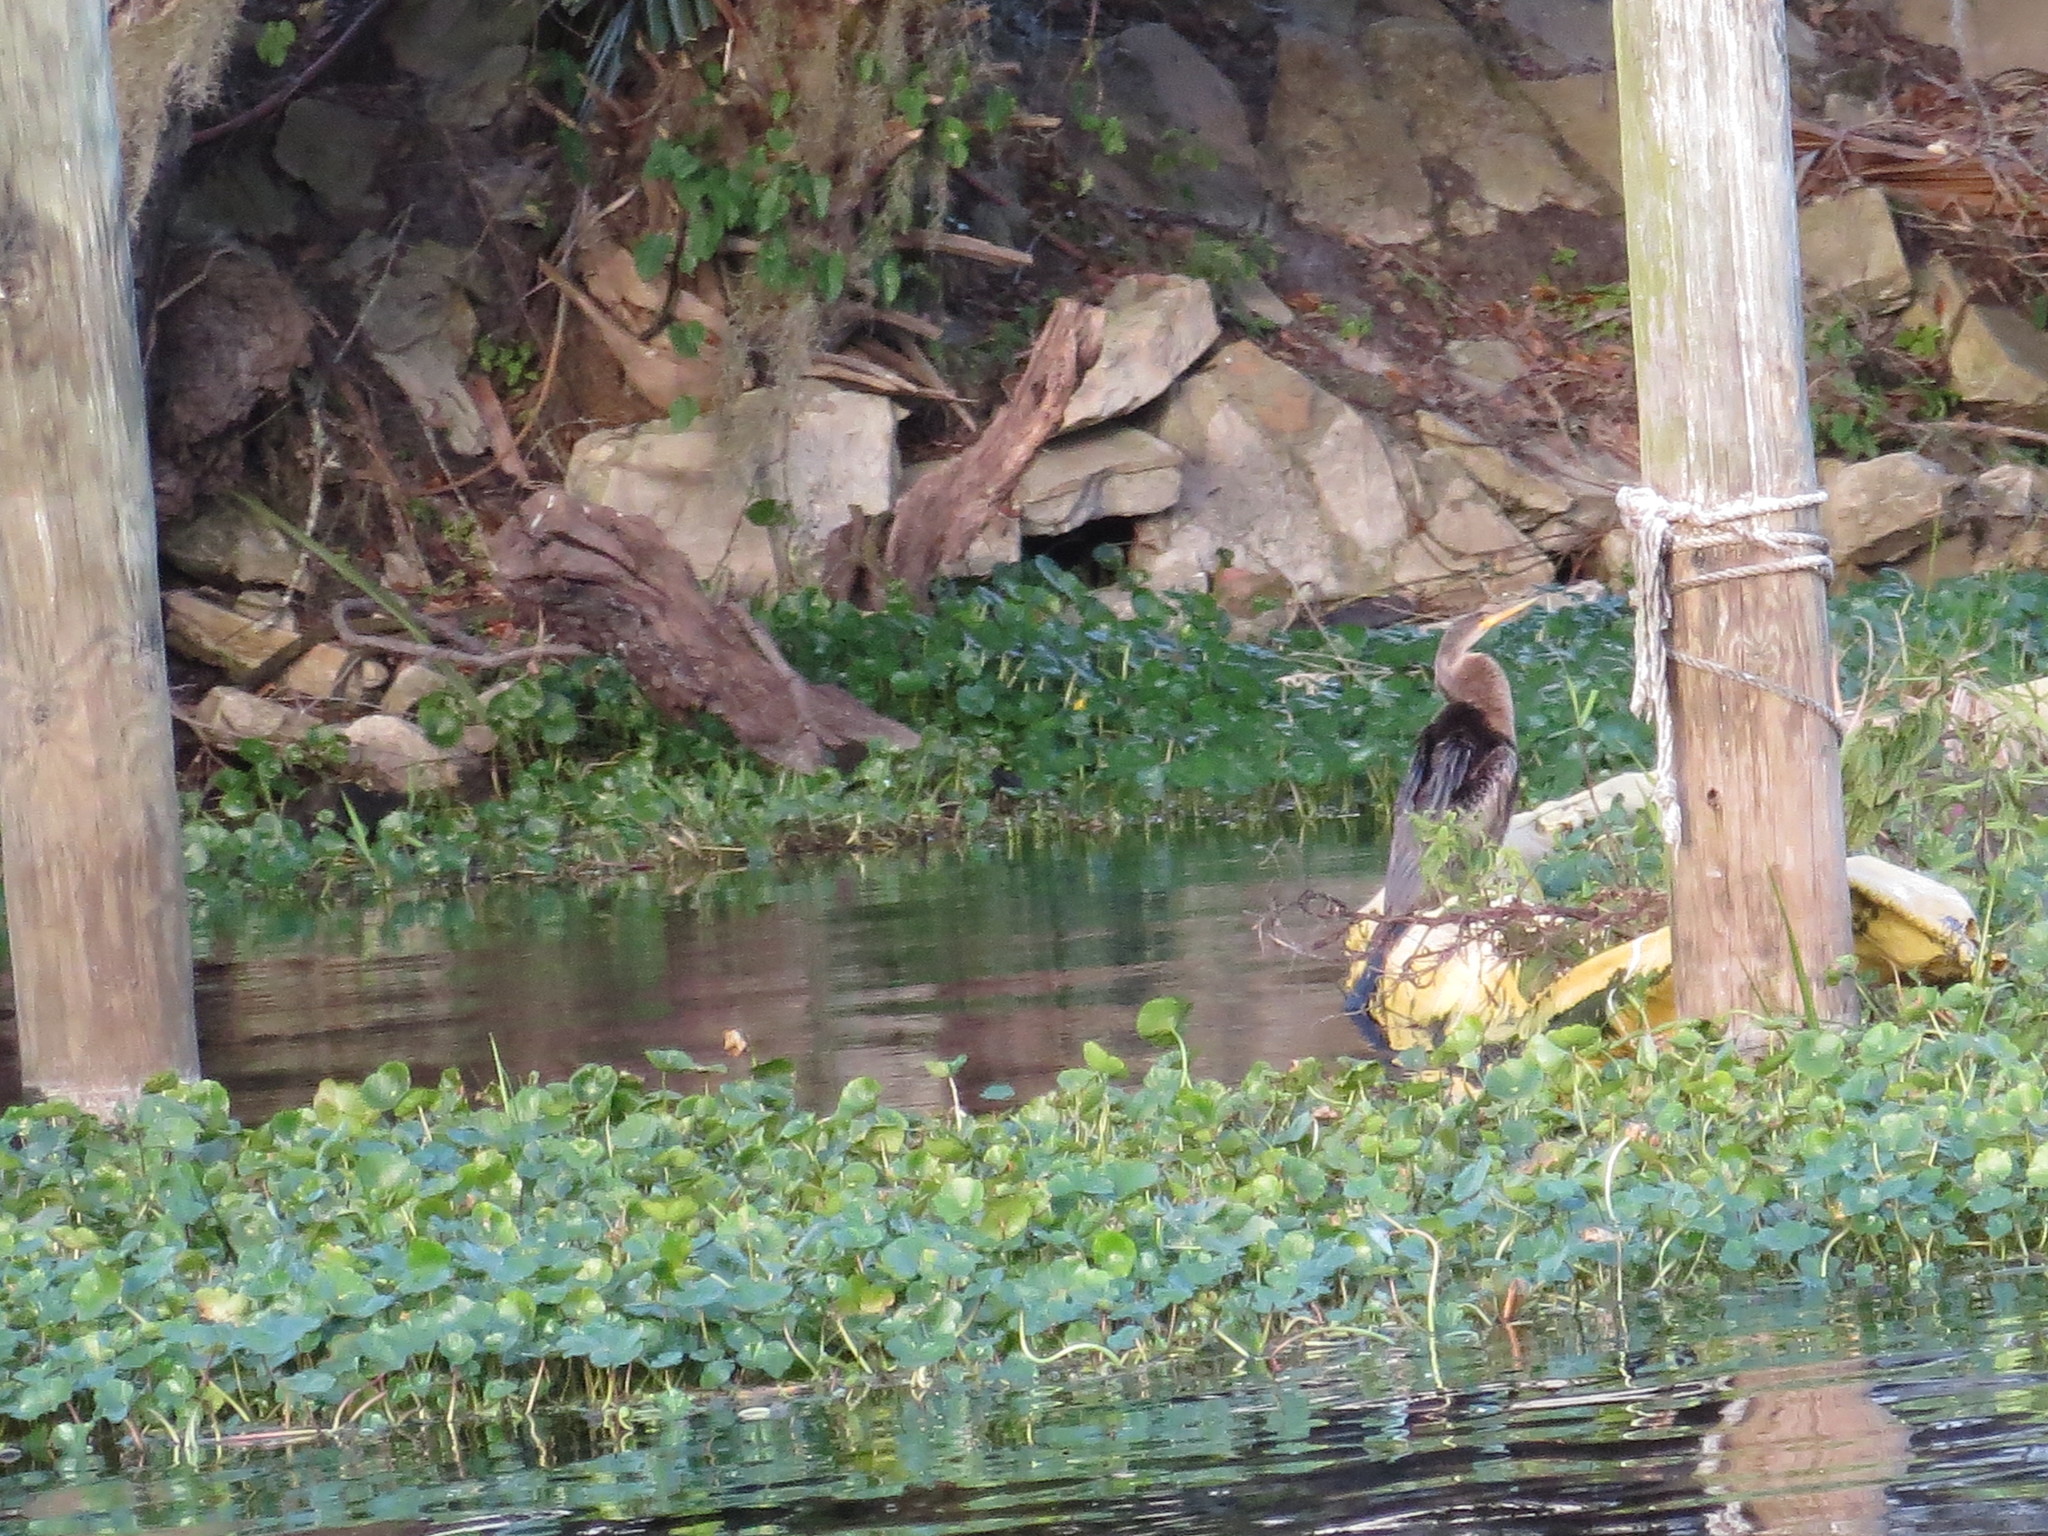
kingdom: Animalia
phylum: Chordata
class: Aves
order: Suliformes
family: Anhingidae
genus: Anhinga
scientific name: Anhinga anhinga
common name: Anhinga
